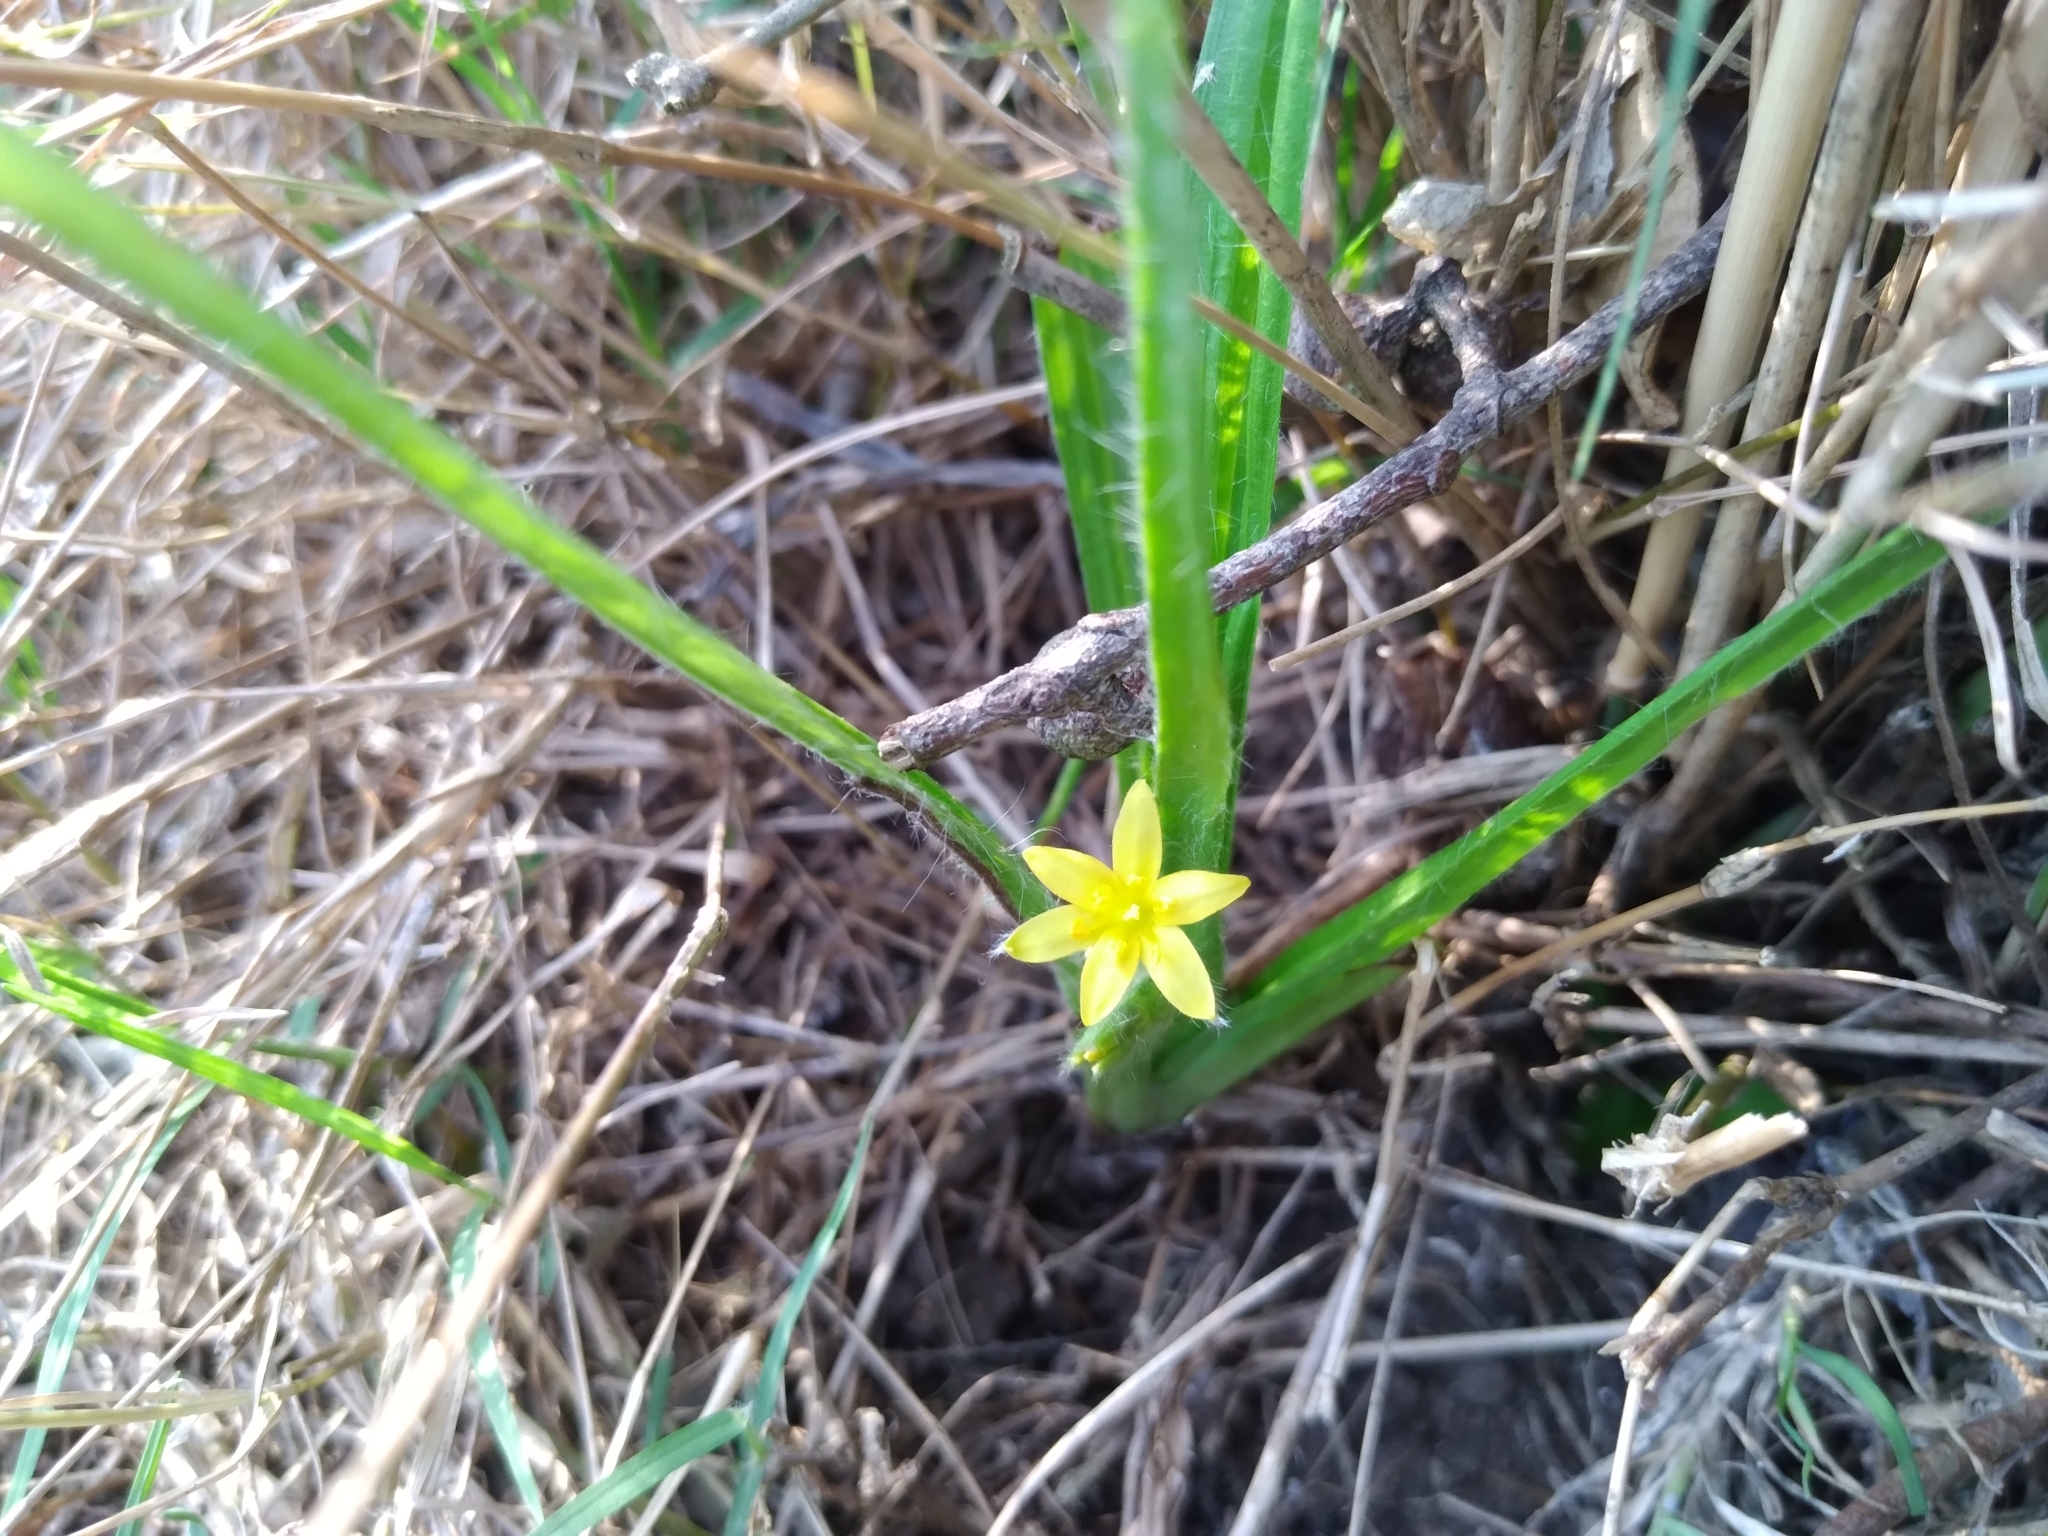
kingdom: Plantae
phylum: Tracheophyta
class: Liliopsida
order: Asparagales
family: Hypoxidaceae
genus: Hypoxis
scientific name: Hypoxis decumbens
